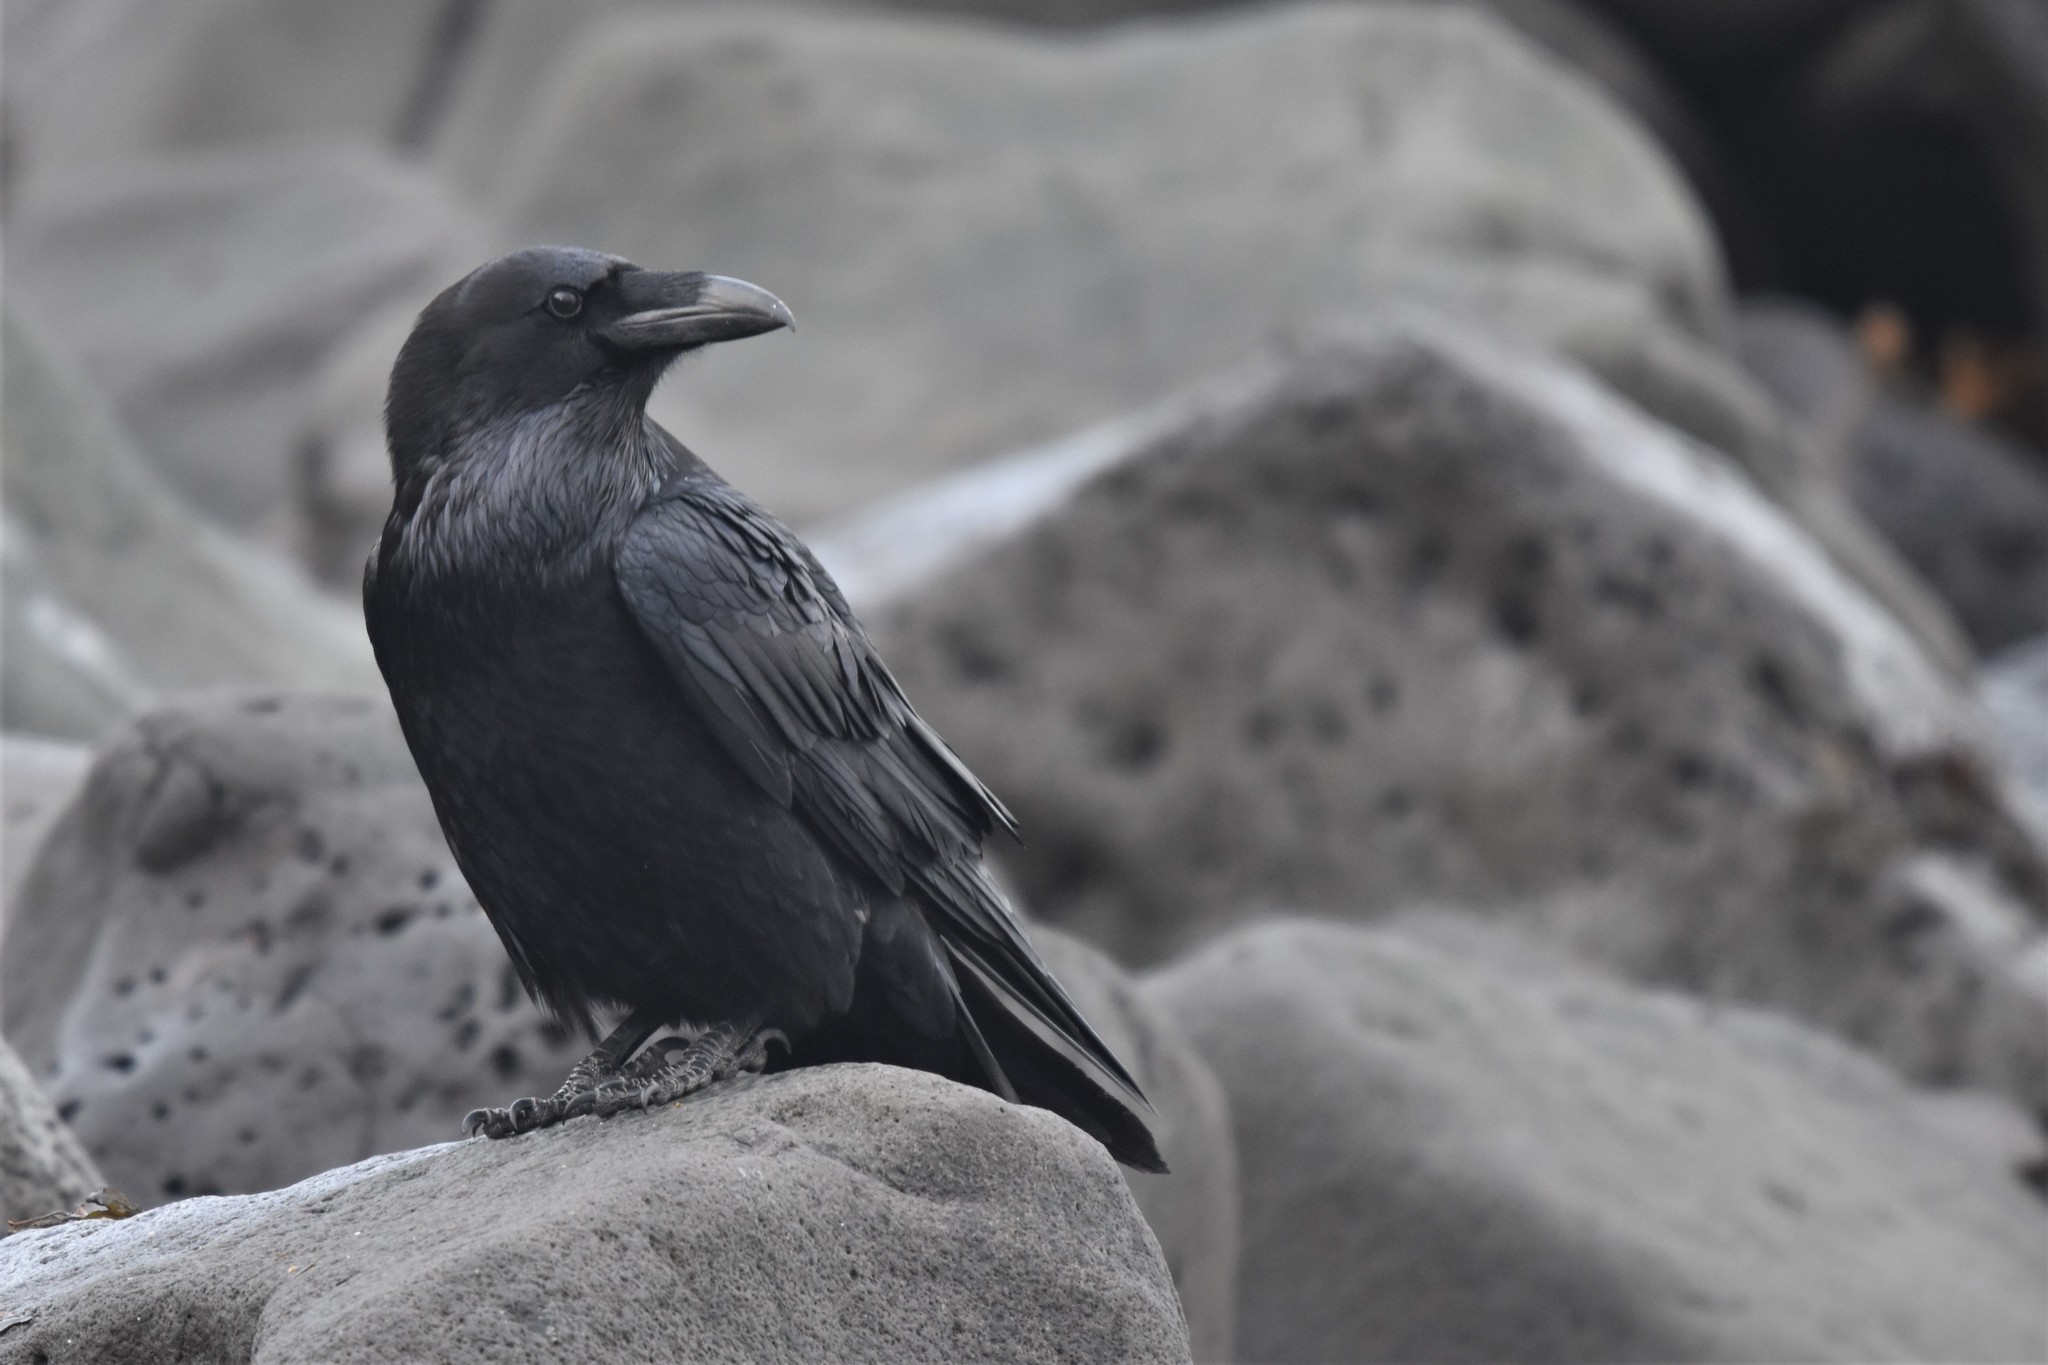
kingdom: Animalia
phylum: Chordata
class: Aves
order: Passeriformes
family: Corvidae
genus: Corvus
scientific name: Corvus corax
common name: Common raven
